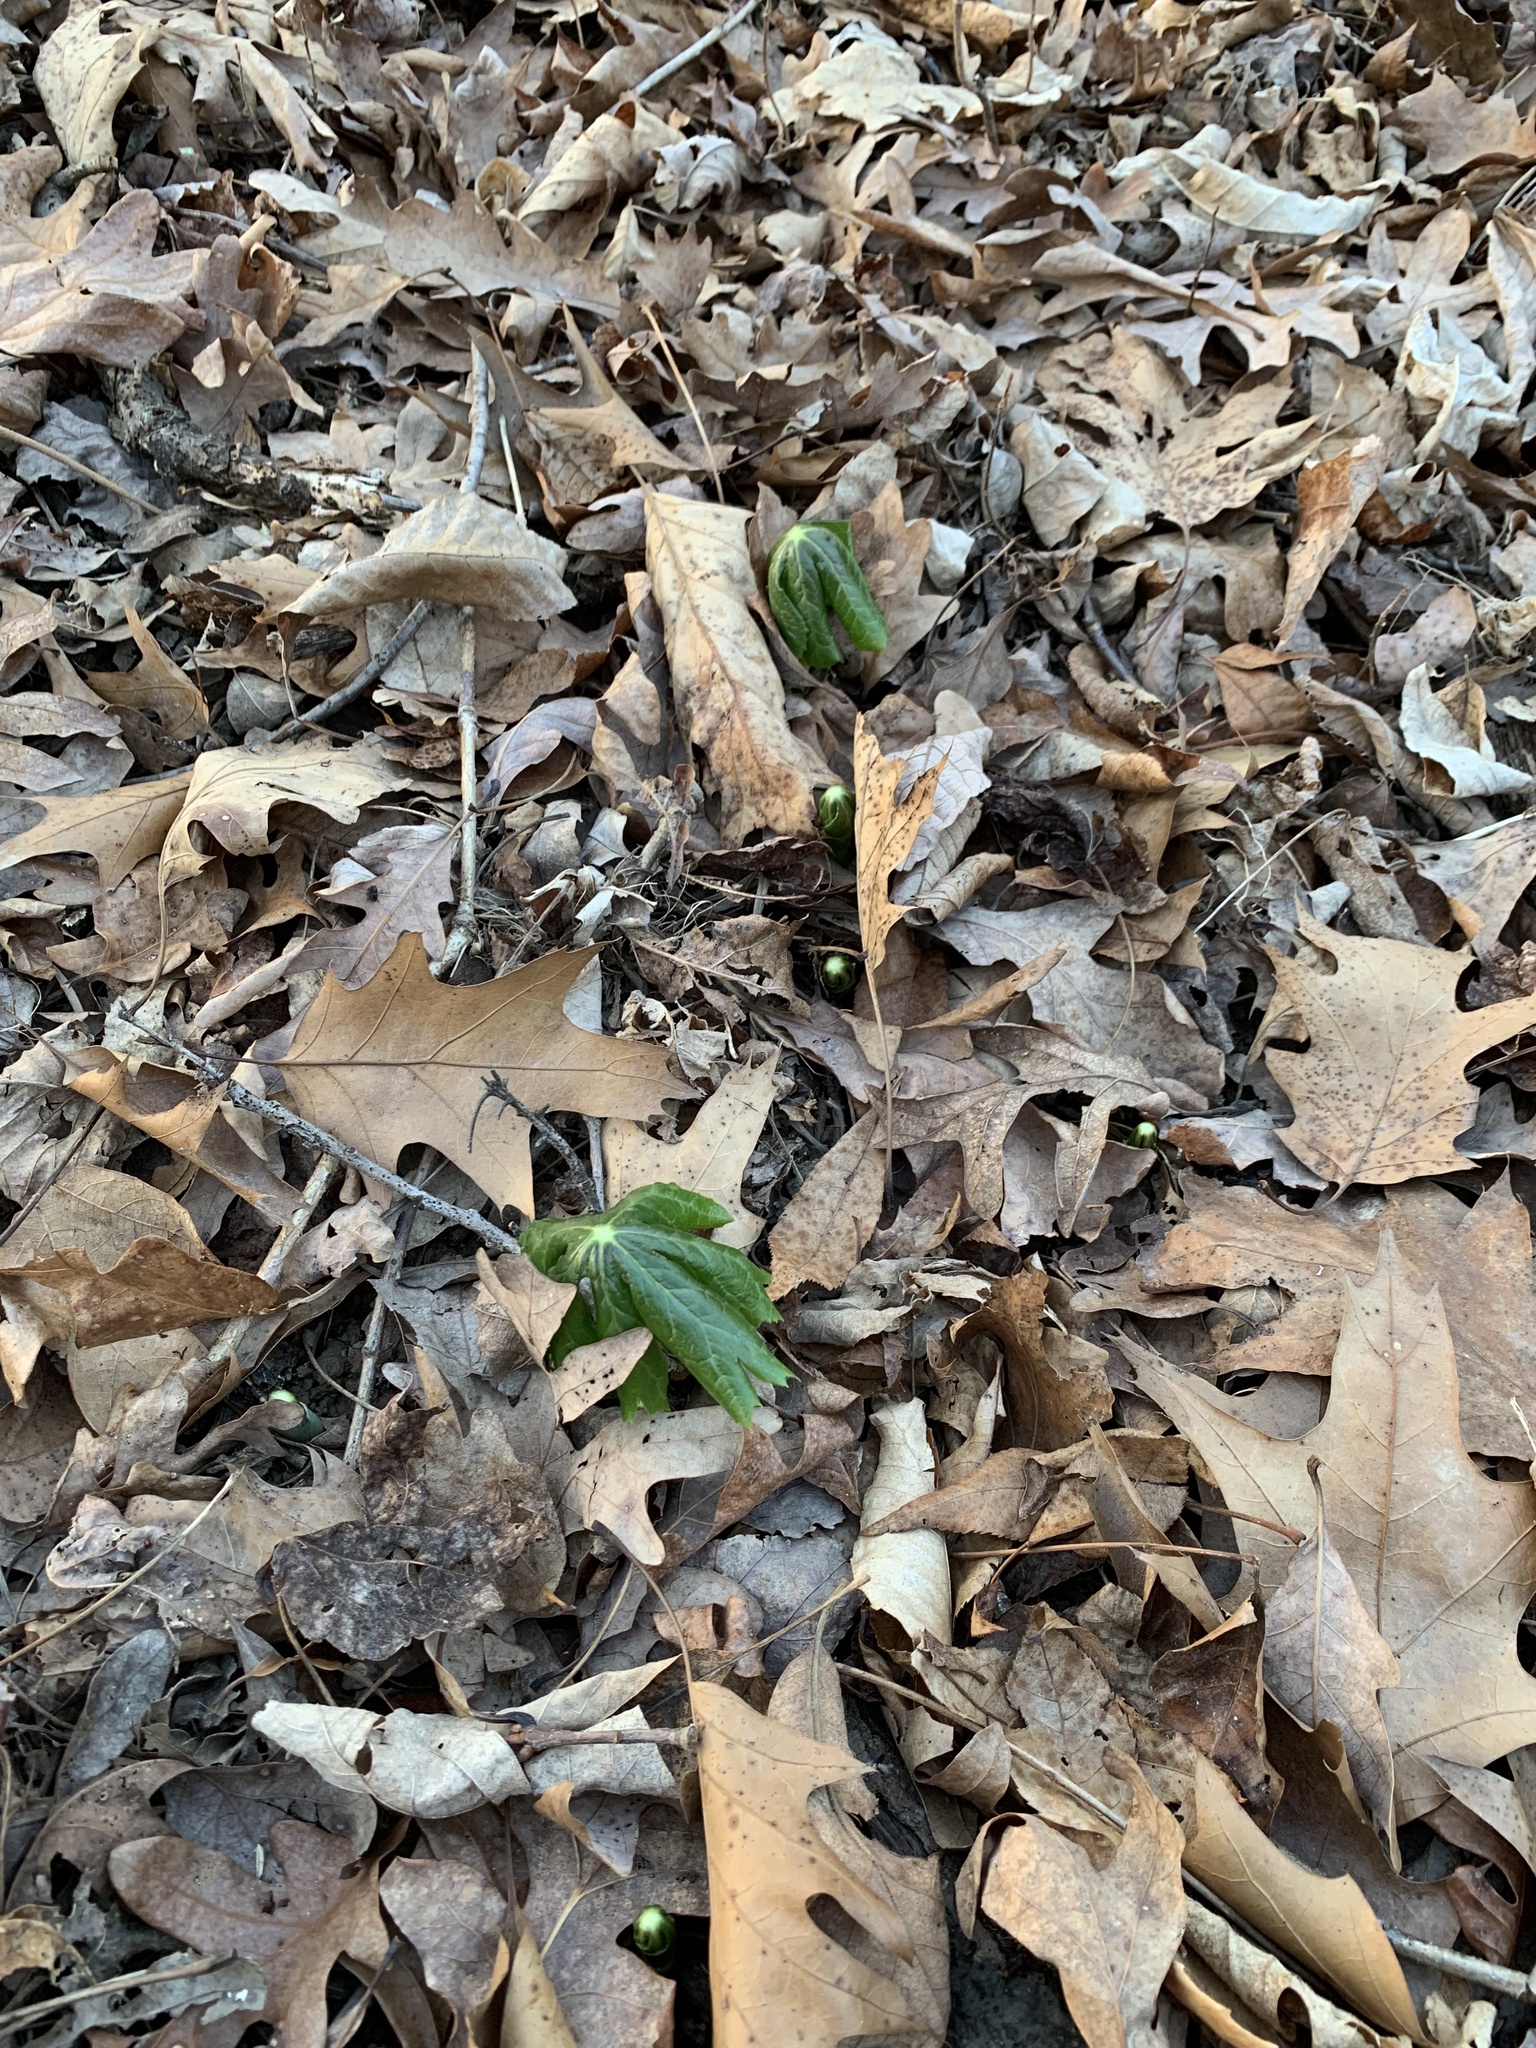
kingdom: Plantae
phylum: Tracheophyta
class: Magnoliopsida
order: Ranunculales
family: Berberidaceae
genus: Podophyllum
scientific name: Podophyllum peltatum
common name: Wild mandrake
